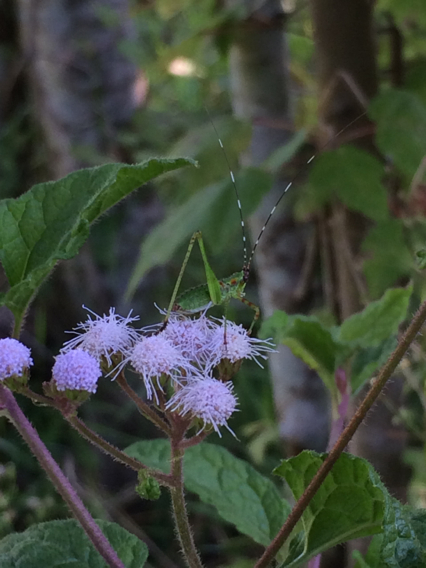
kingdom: Plantae
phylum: Tracheophyta
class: Magnoliopsida
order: Asterales
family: Asteraceae
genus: Conoclinium
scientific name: Conoclinium coelestinum
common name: Blue mistflower
